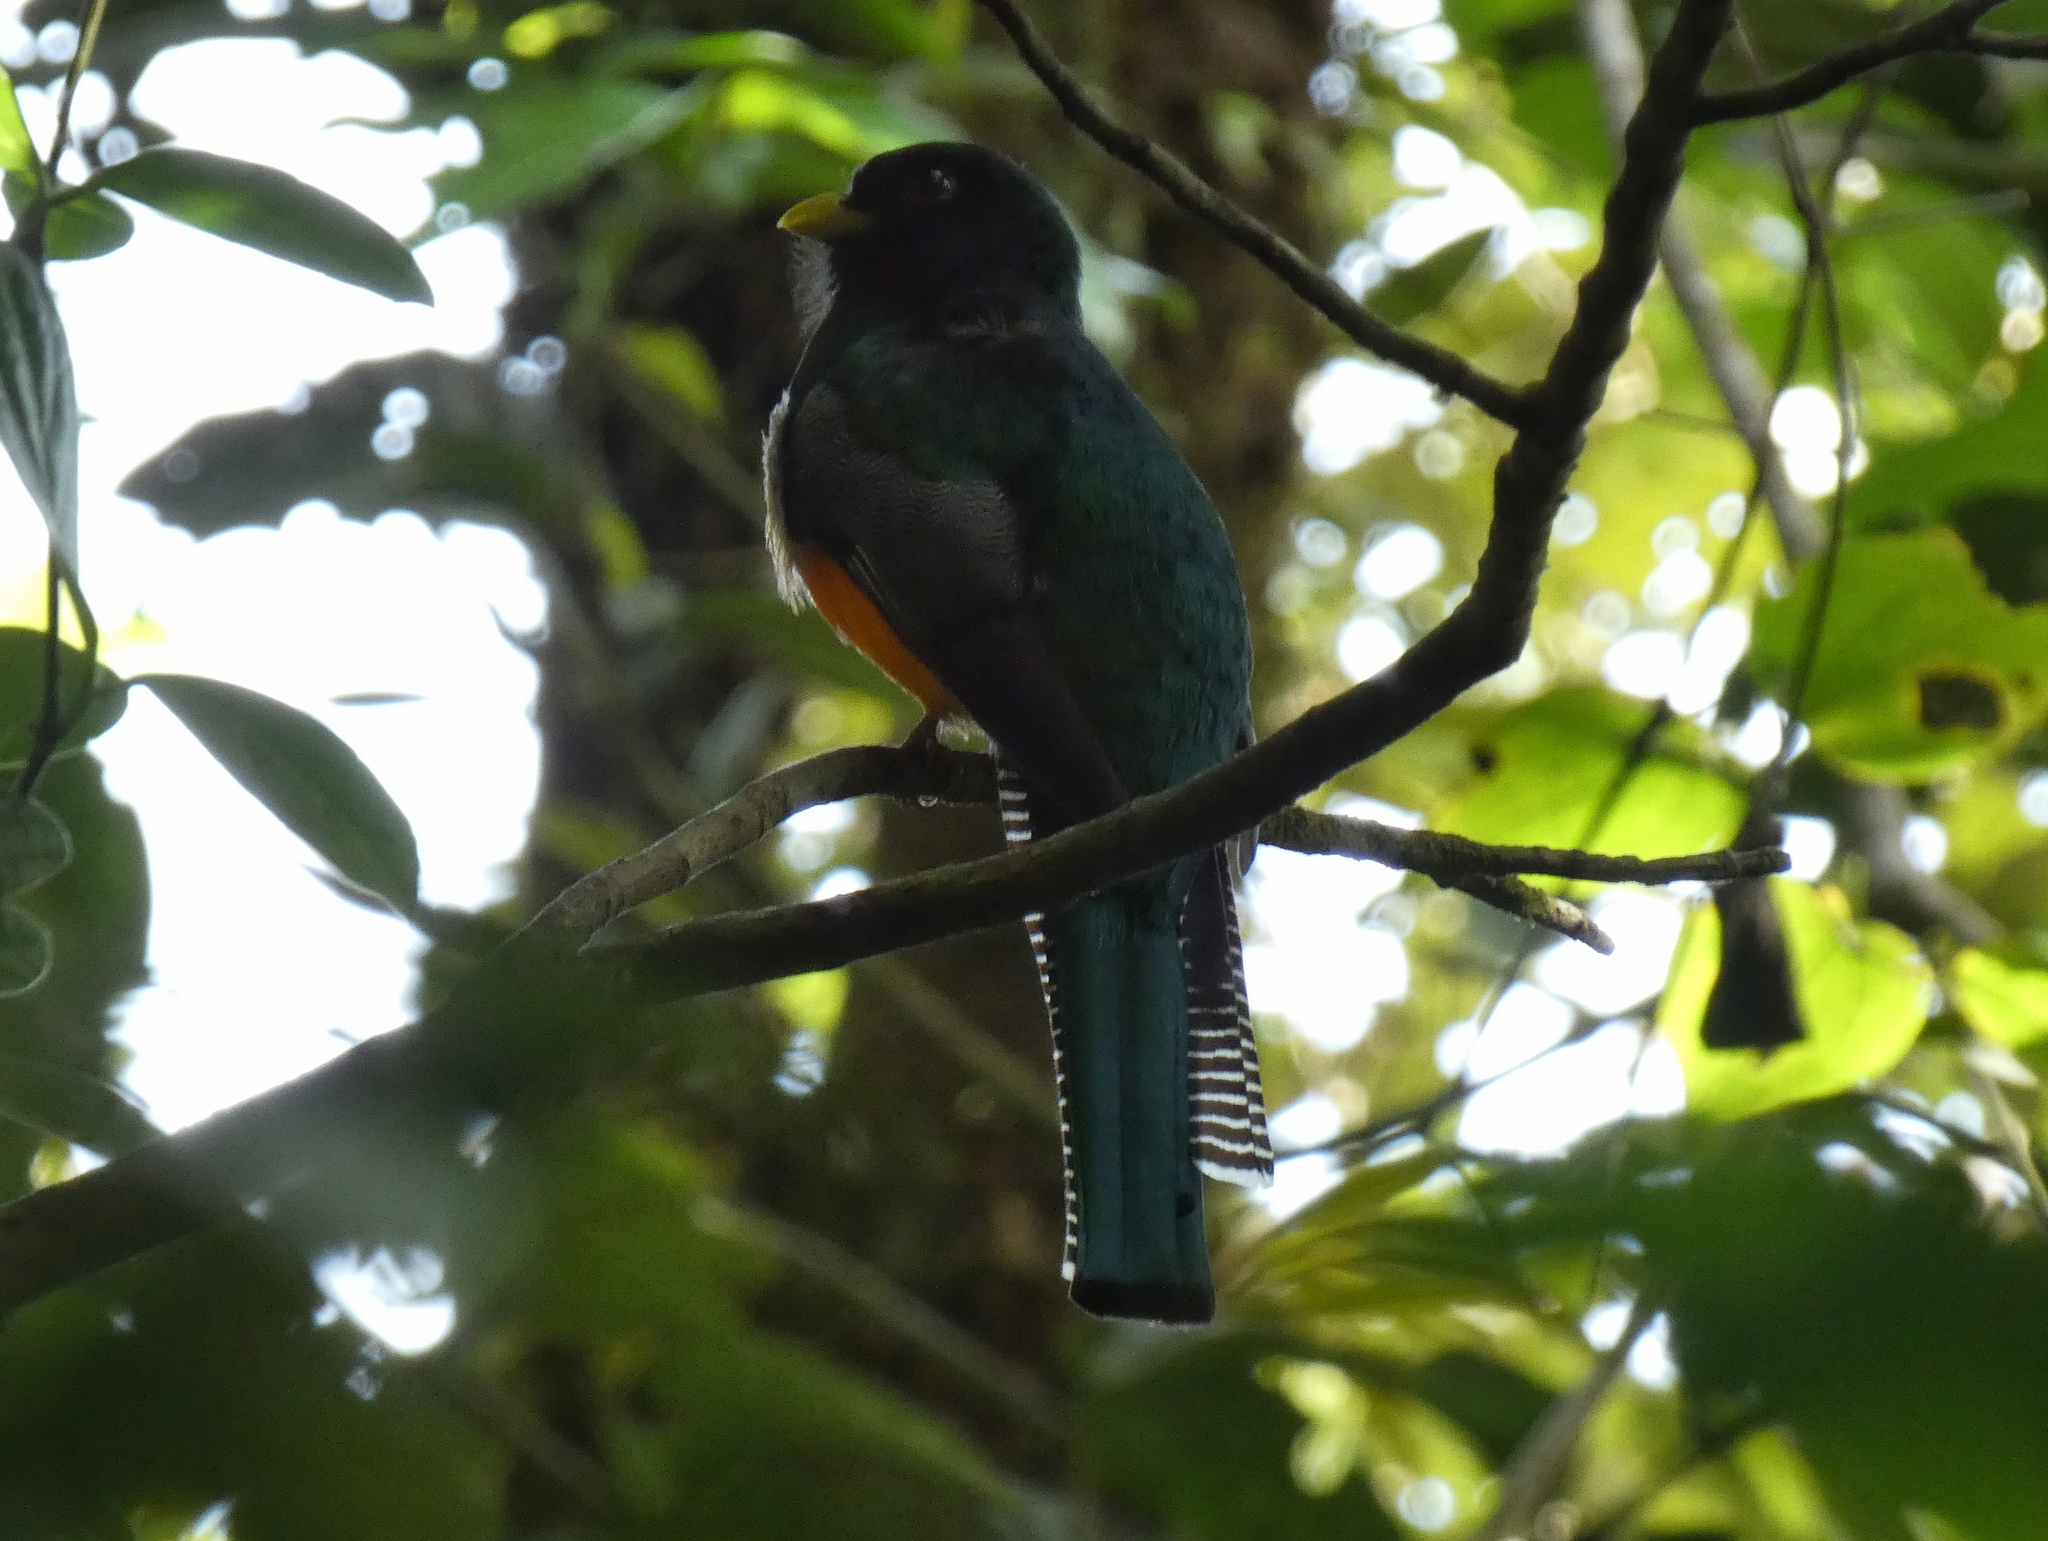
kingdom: Animalia
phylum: Chordata
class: Aves
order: Trogoniformes
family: Trogonidae
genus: Trogon
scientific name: Trogon collaris
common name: Collared trogon
